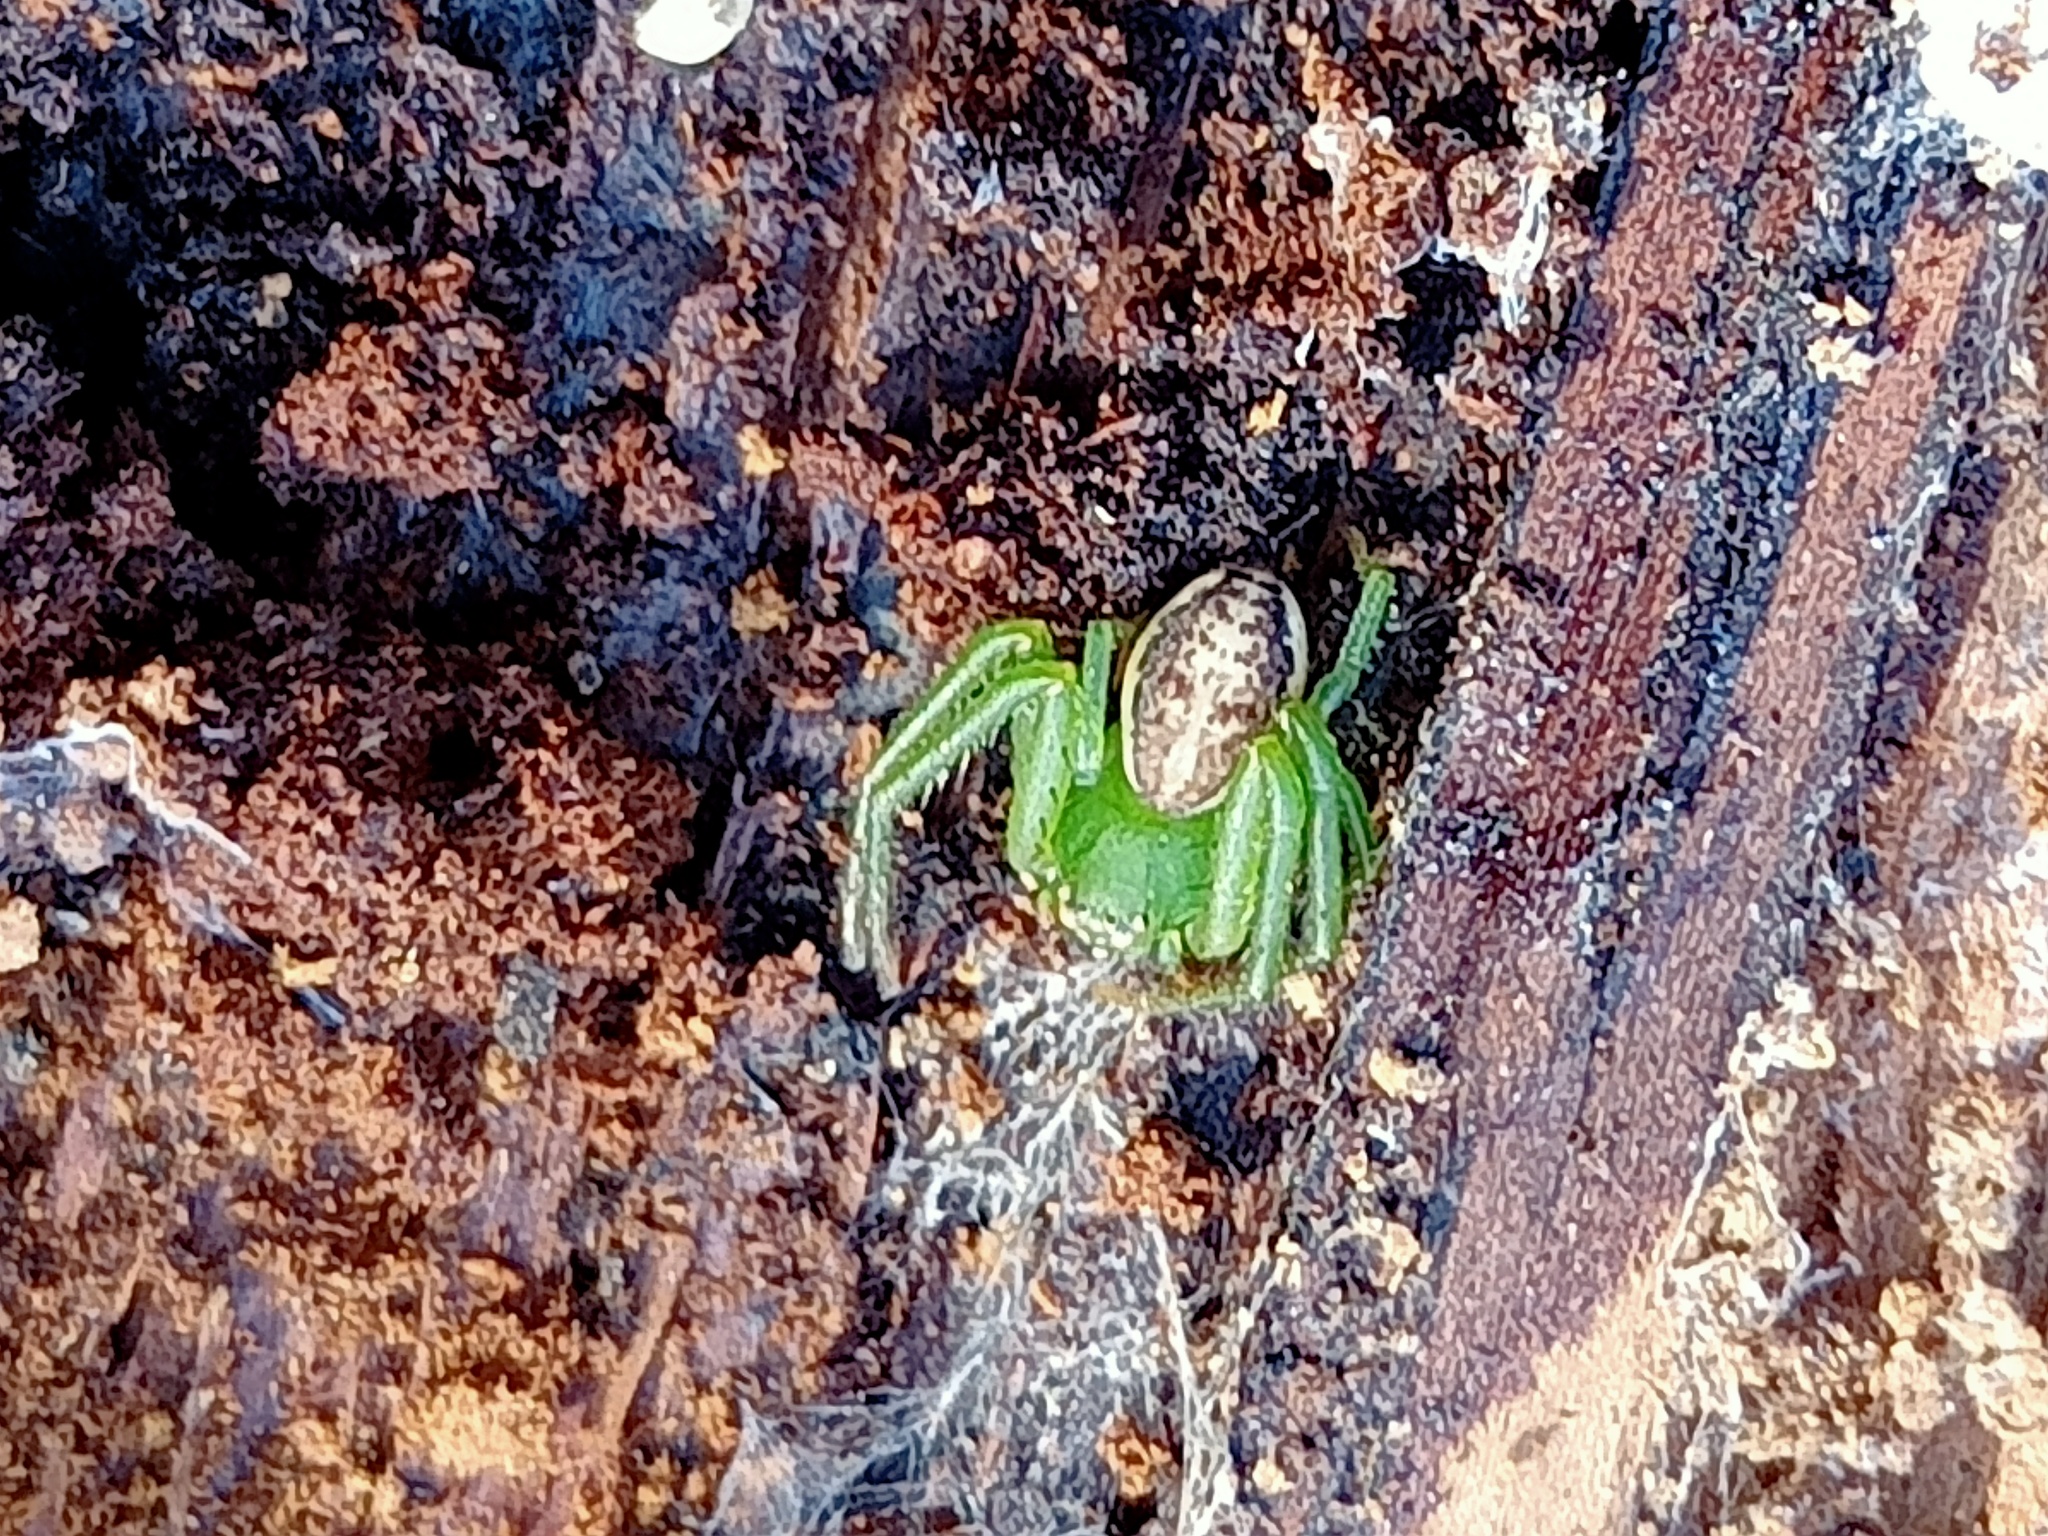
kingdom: Animalia
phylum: Arthropoda
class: Arachnida
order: Araneae
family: Thomisidae
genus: Diaea
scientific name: Diaea dorsata
